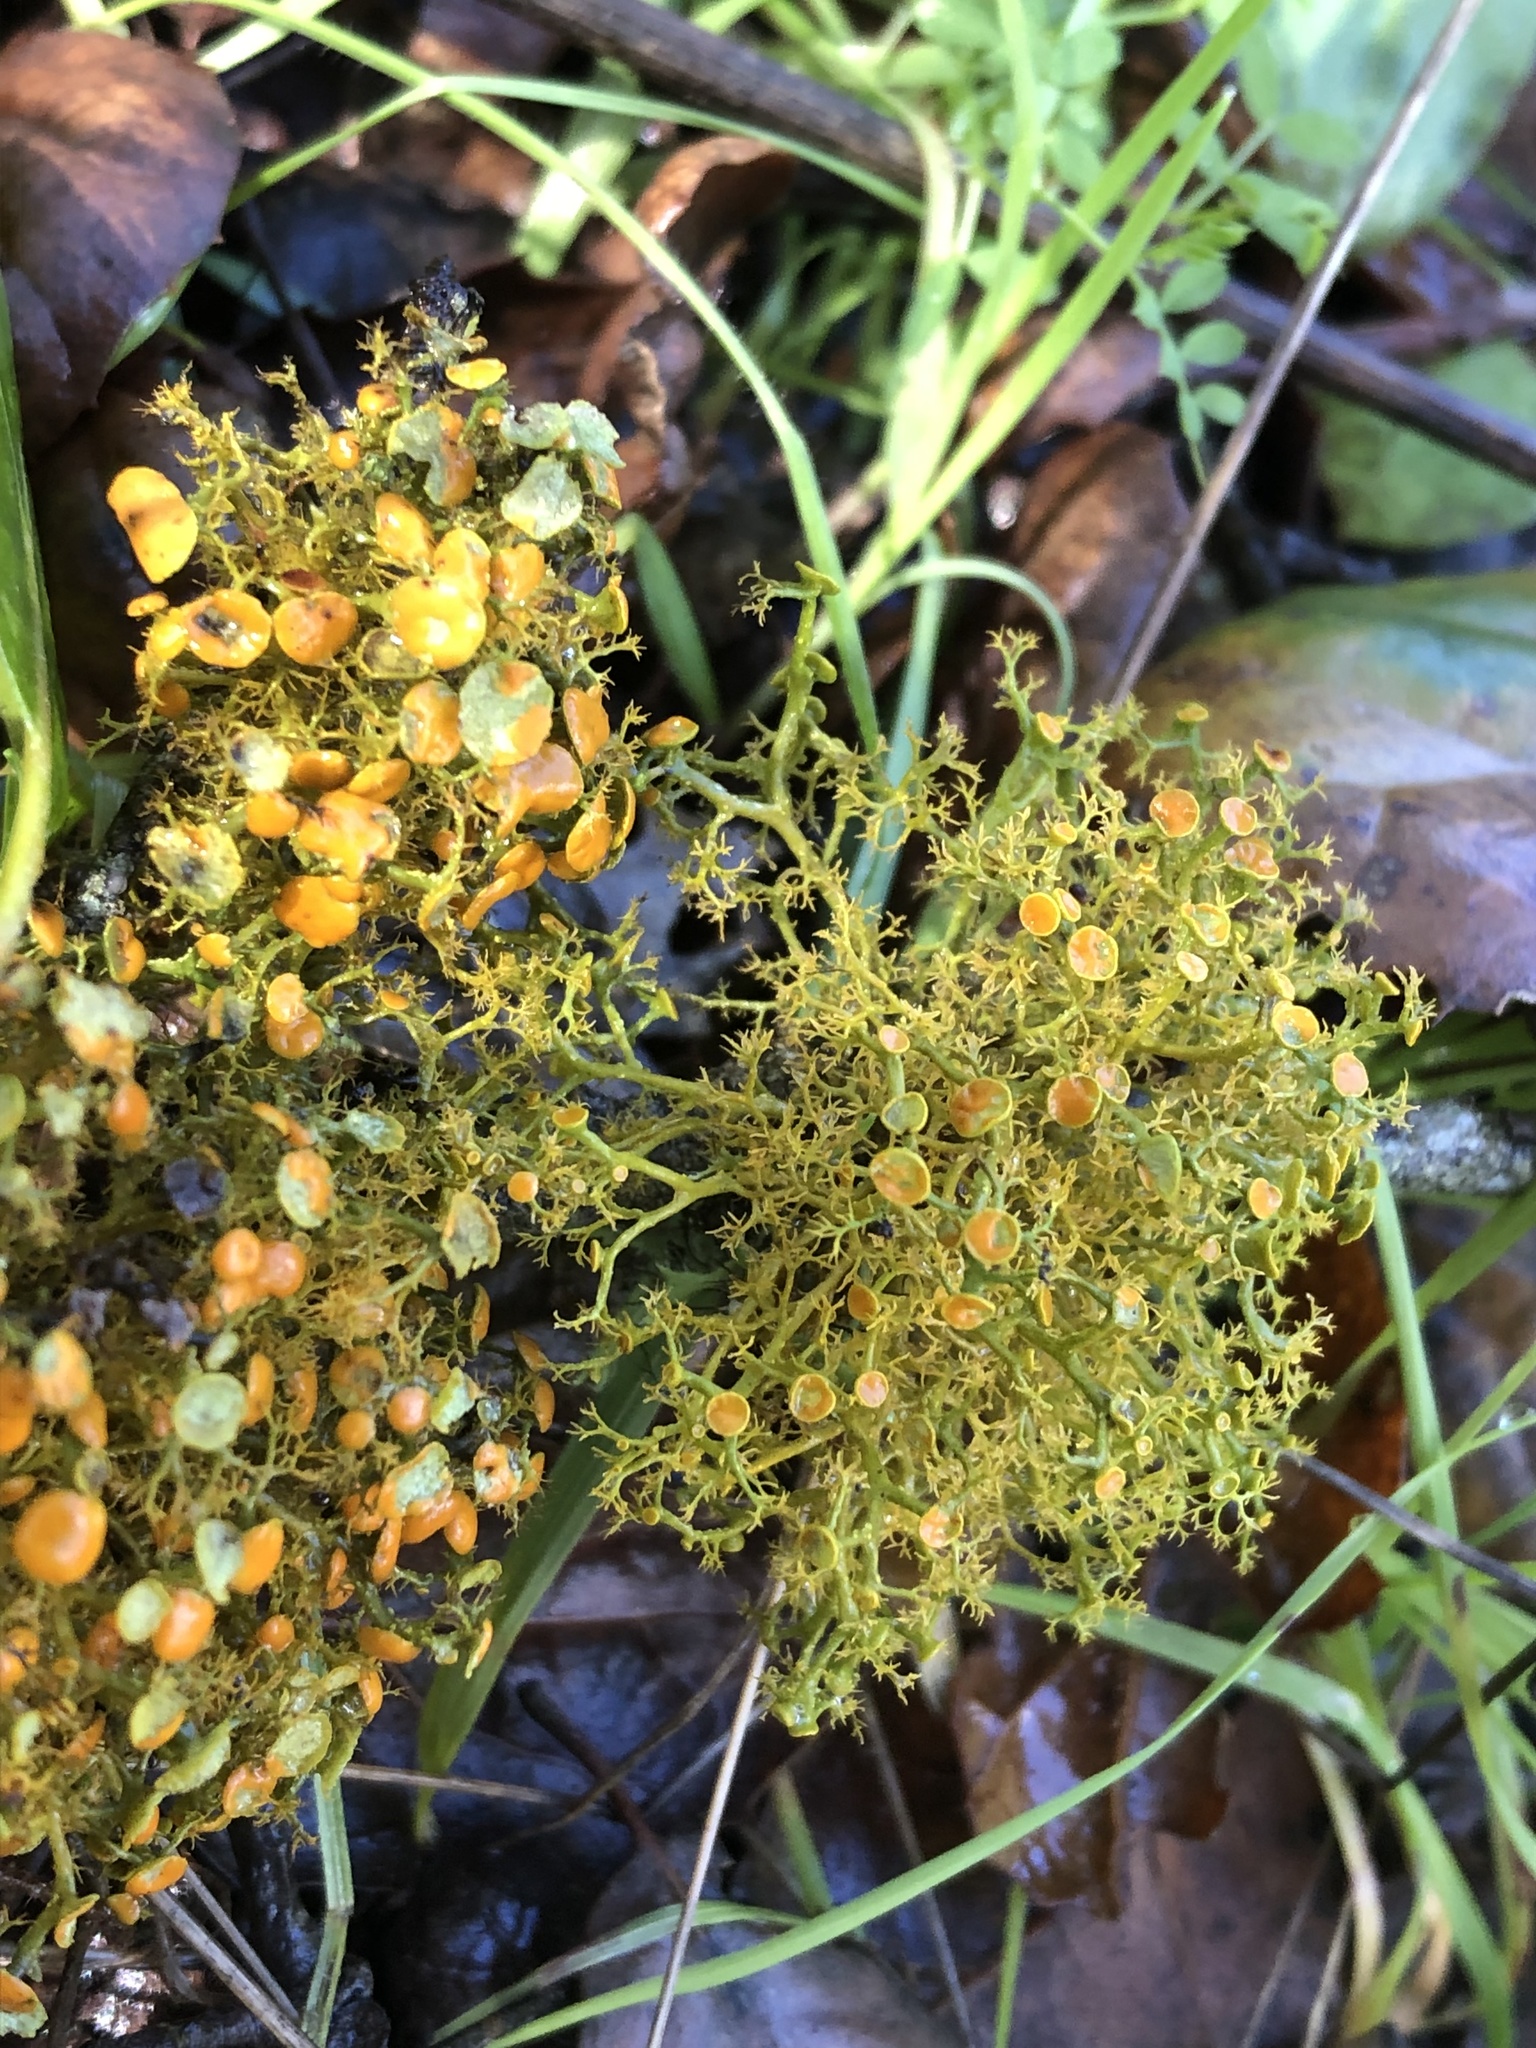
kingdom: Fungi
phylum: Ascomycota
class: Lecanoromycetes
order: Teloschistales
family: Teloschistaceae
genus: Teloschistes
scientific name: Teloschistes flavicans
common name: Golden hair-lichen
